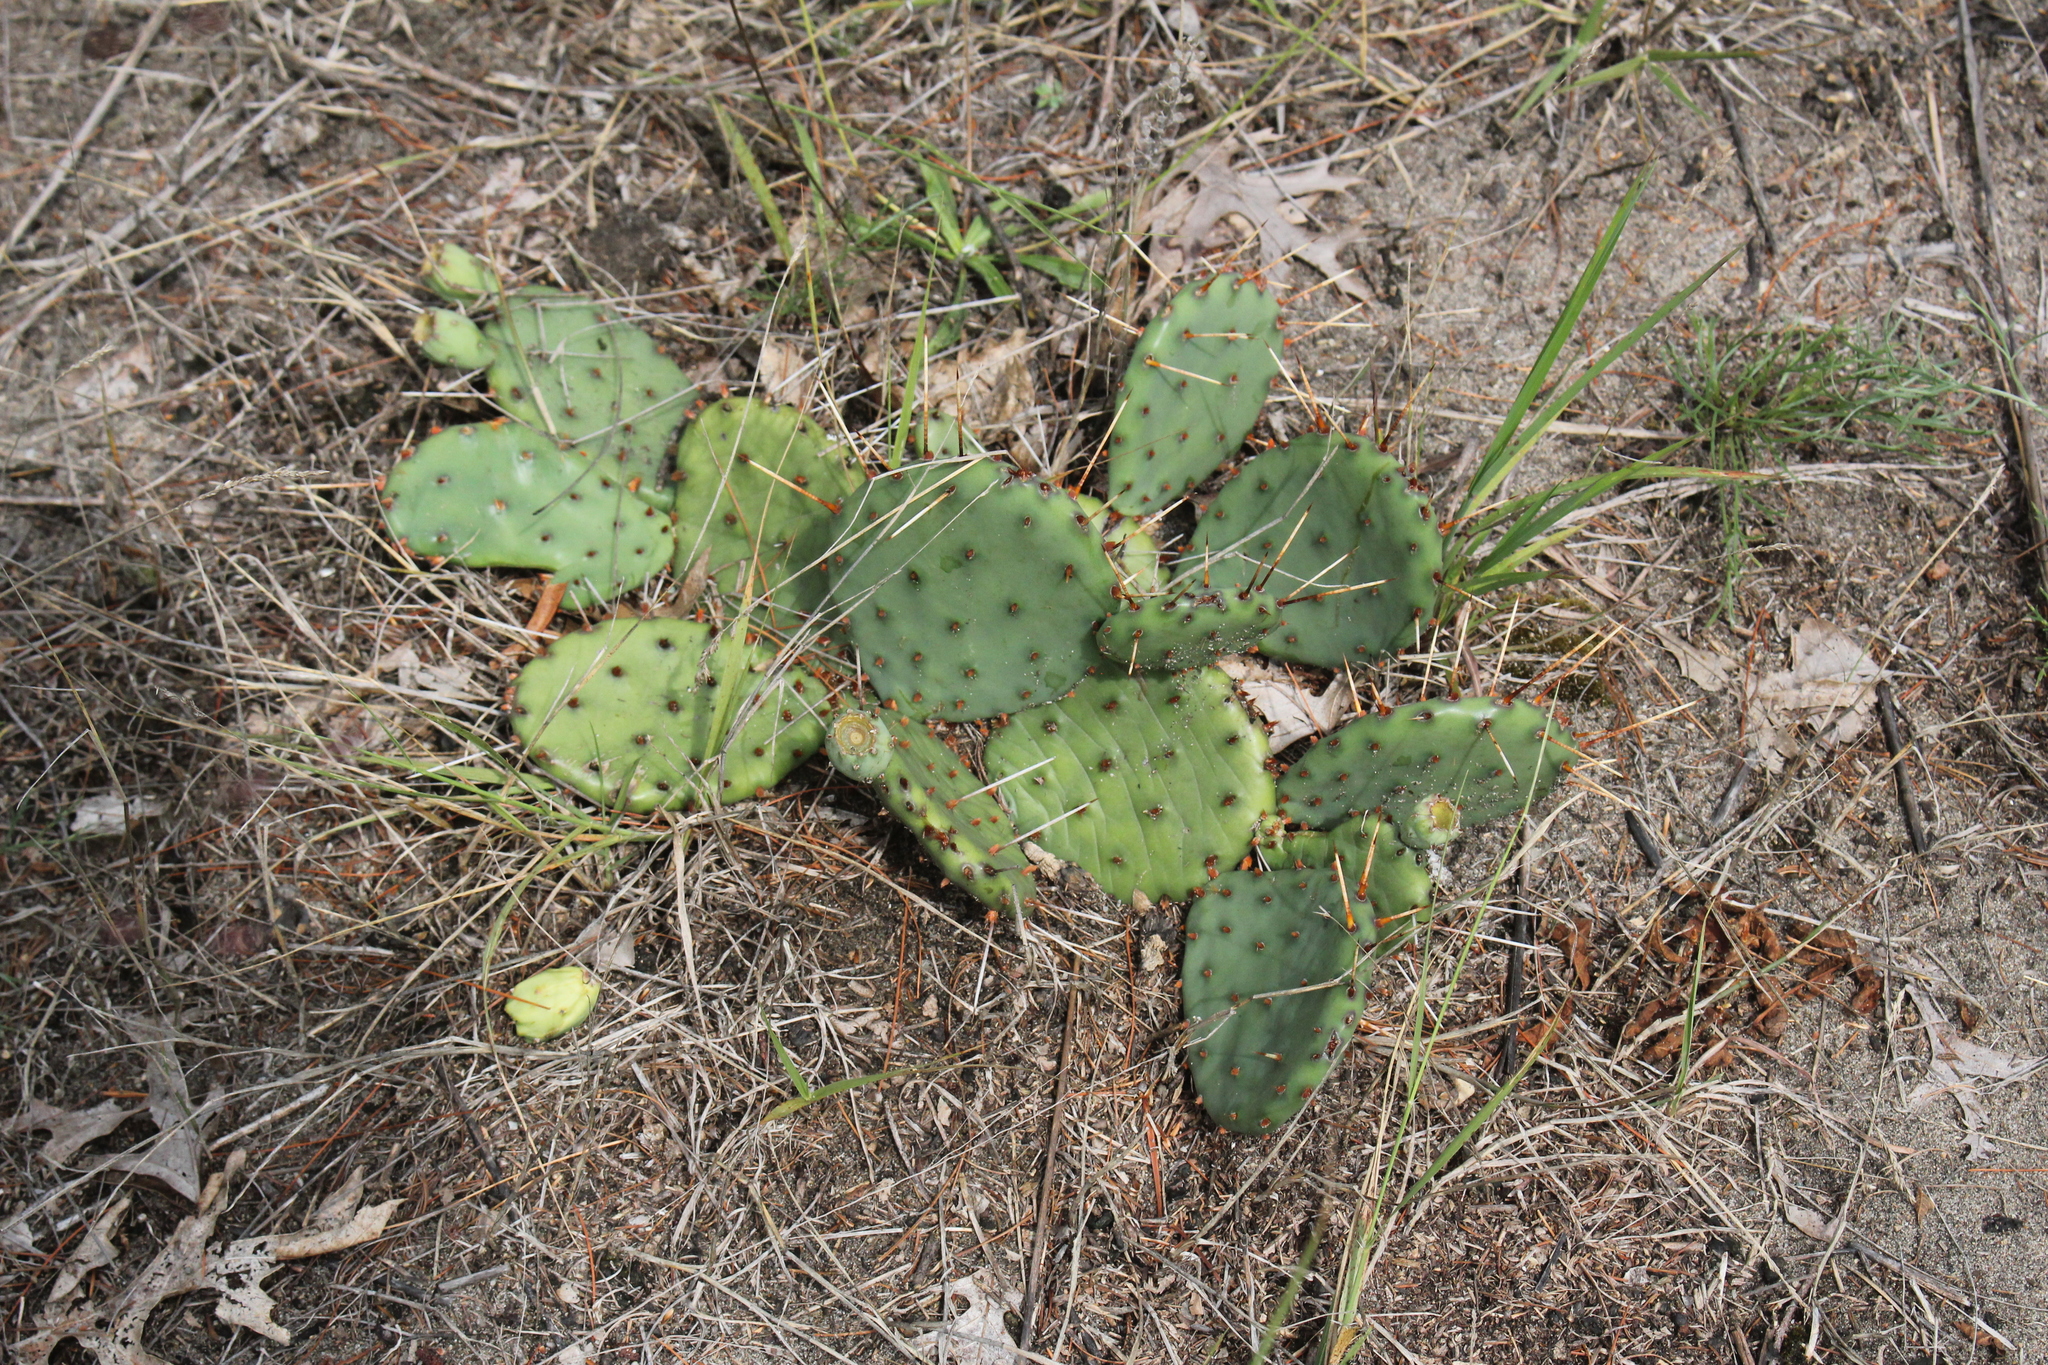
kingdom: Plantae
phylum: Tracheophyta
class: Magnoliopsida
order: Caryophyllales
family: Cactaceae
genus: Opuntia
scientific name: Opuntia humifusa
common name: Eastern prickly-pear
